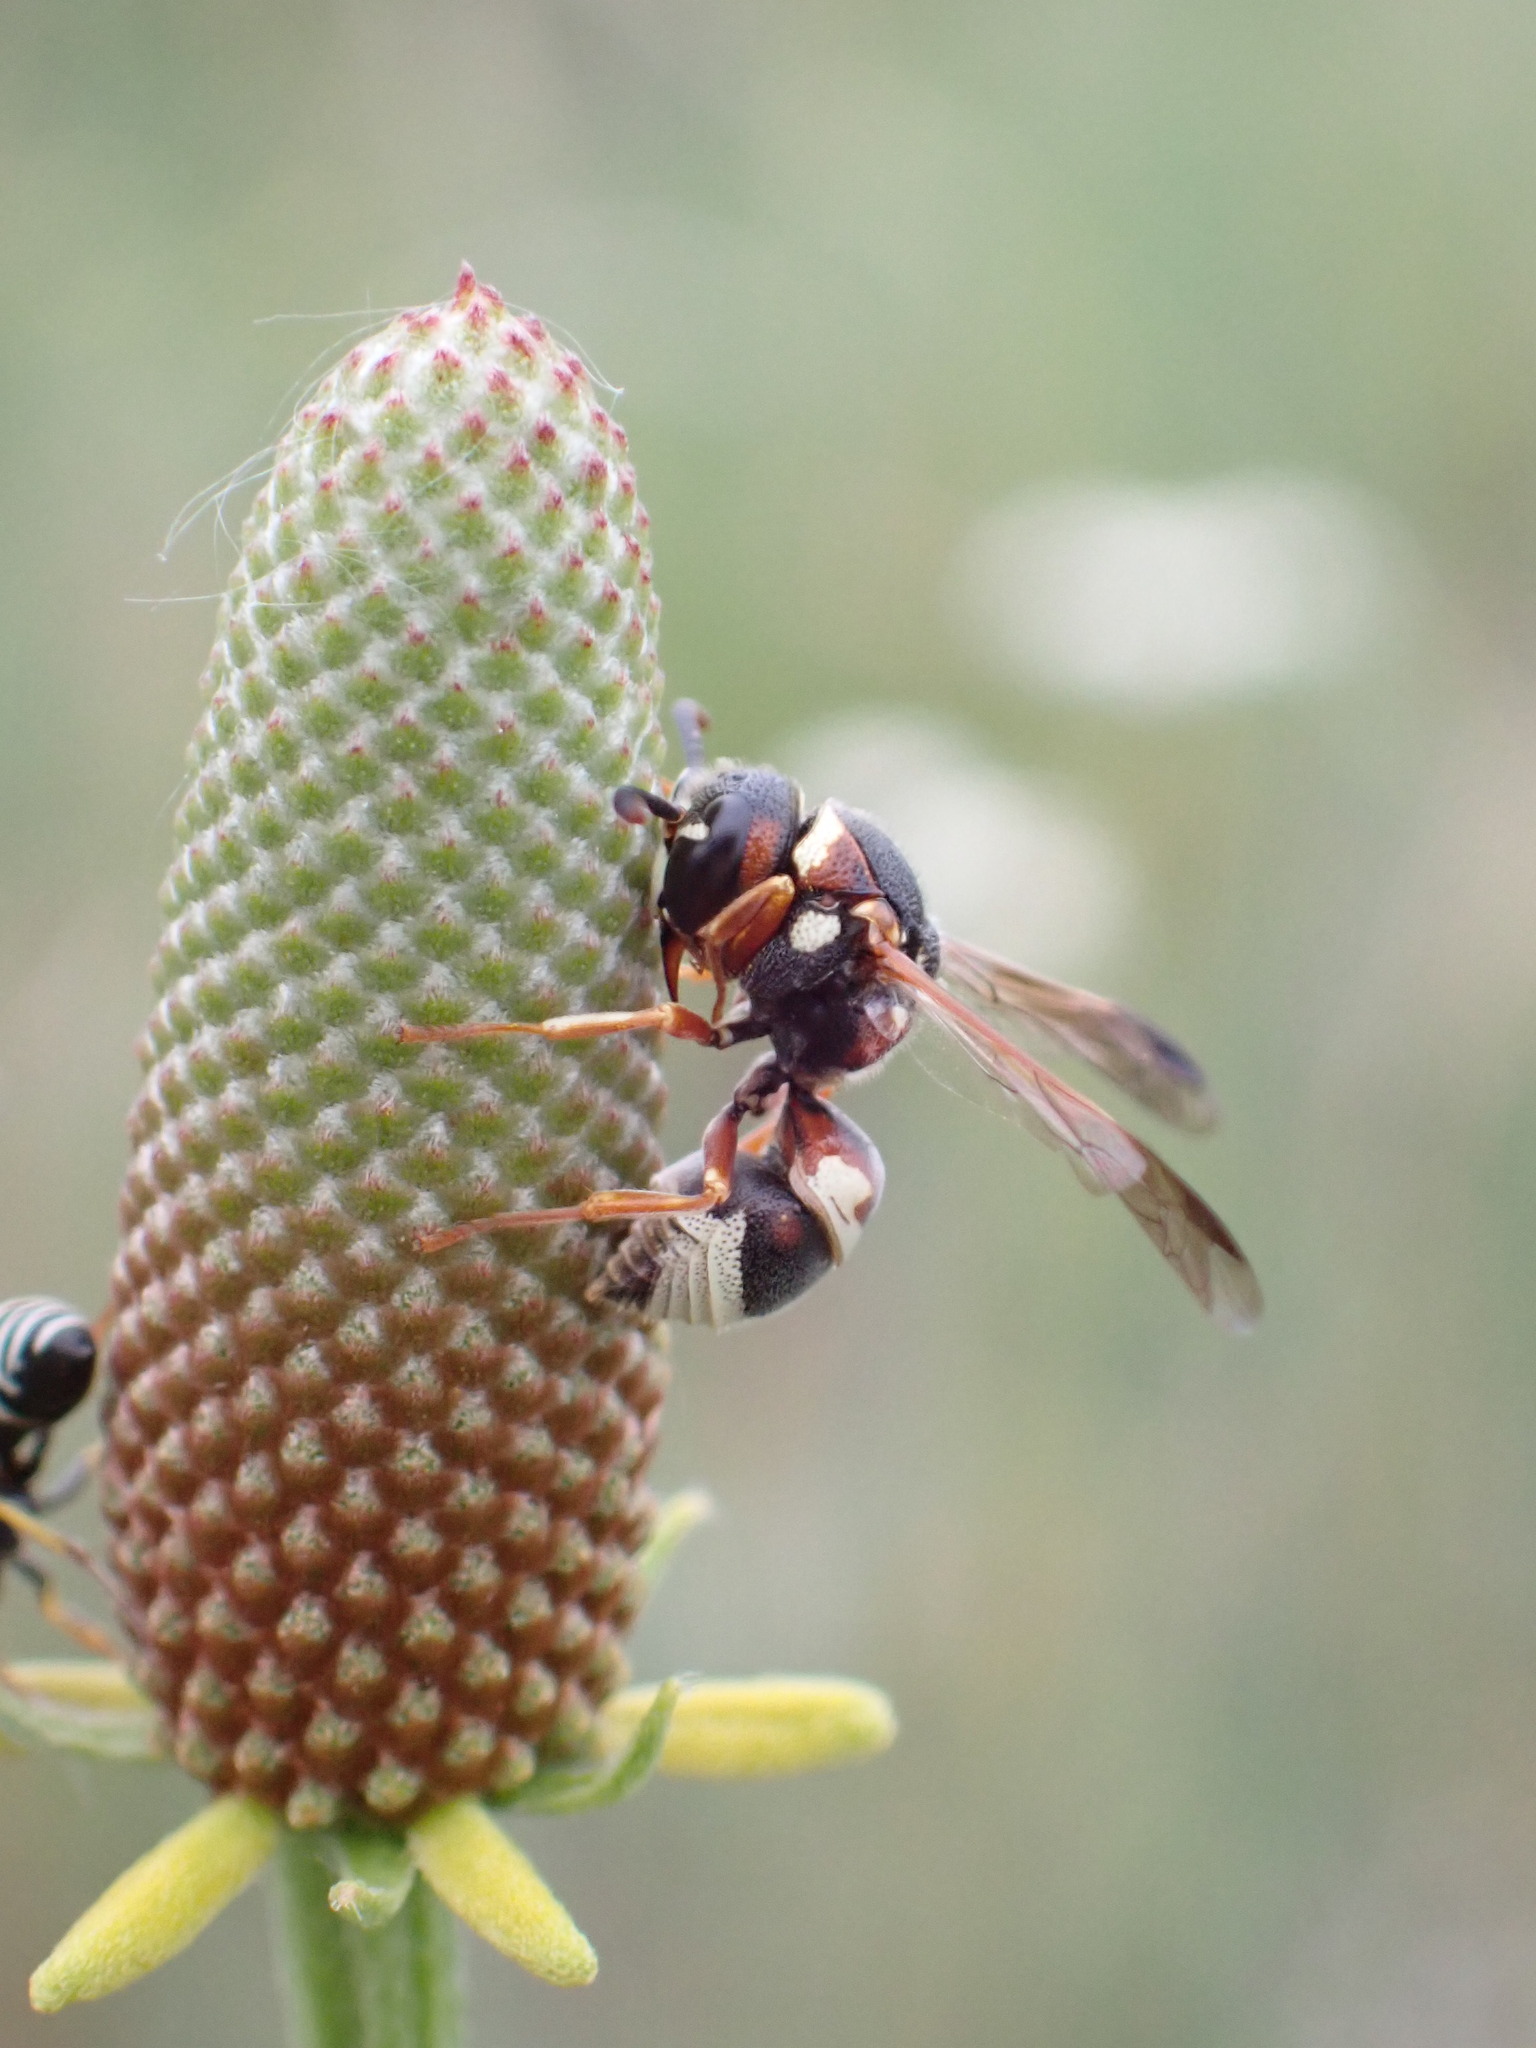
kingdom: Animalia
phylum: Arthropoda
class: Insecta
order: Hymenoptera
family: Eumenidae
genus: Euodynerus
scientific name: Euodynerus annulatus
